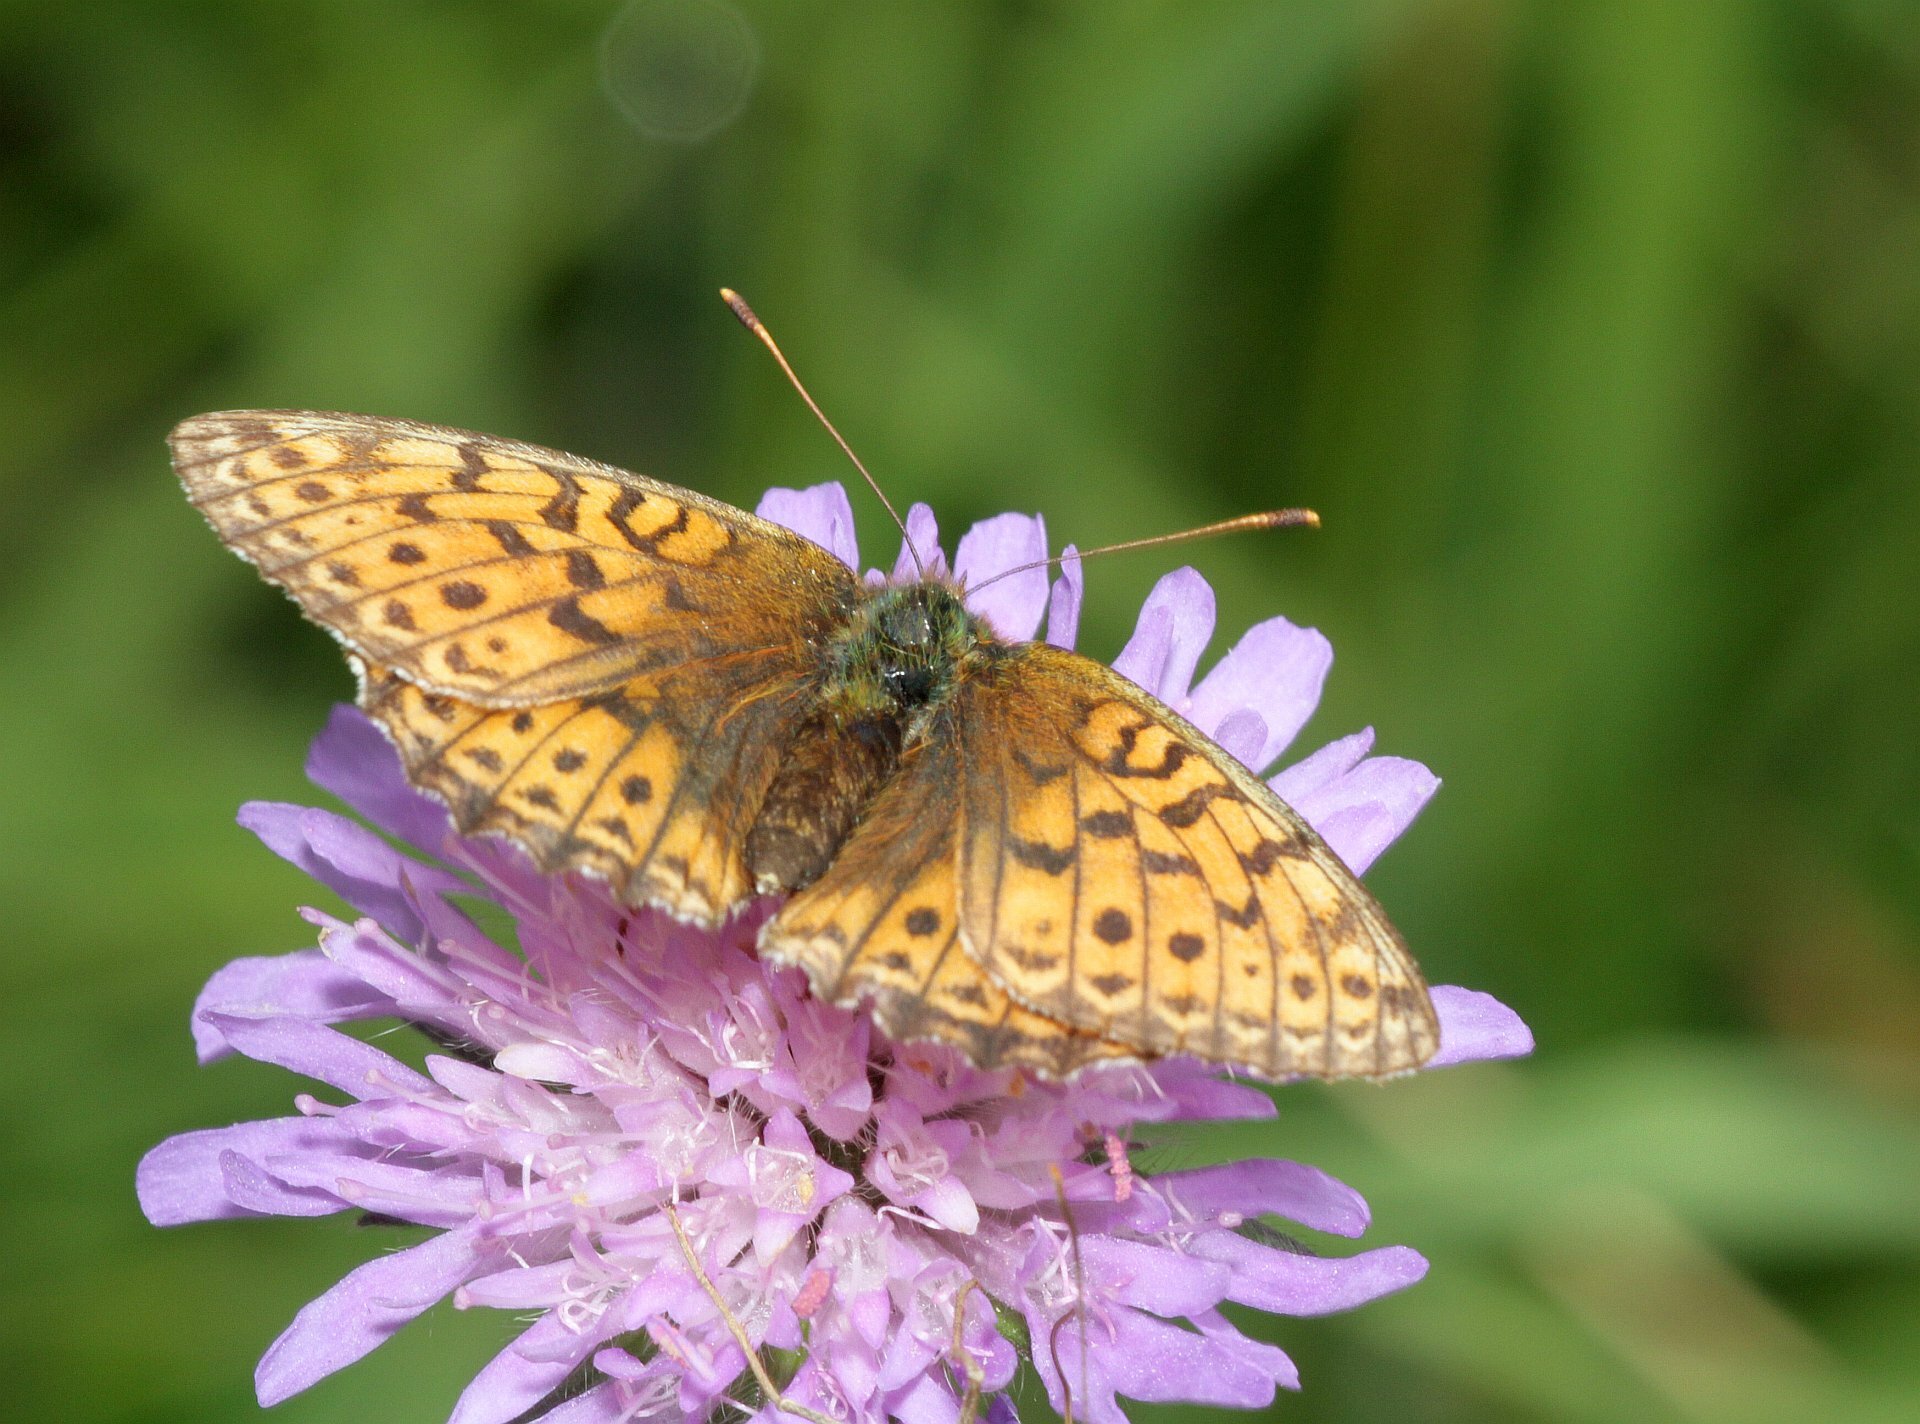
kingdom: Animalia
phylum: Arthropoda
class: Insecta
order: Lepidoptera
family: Nymphalidae
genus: Brenthis
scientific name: Brenthis ino
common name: Lesser marbled fritillary
